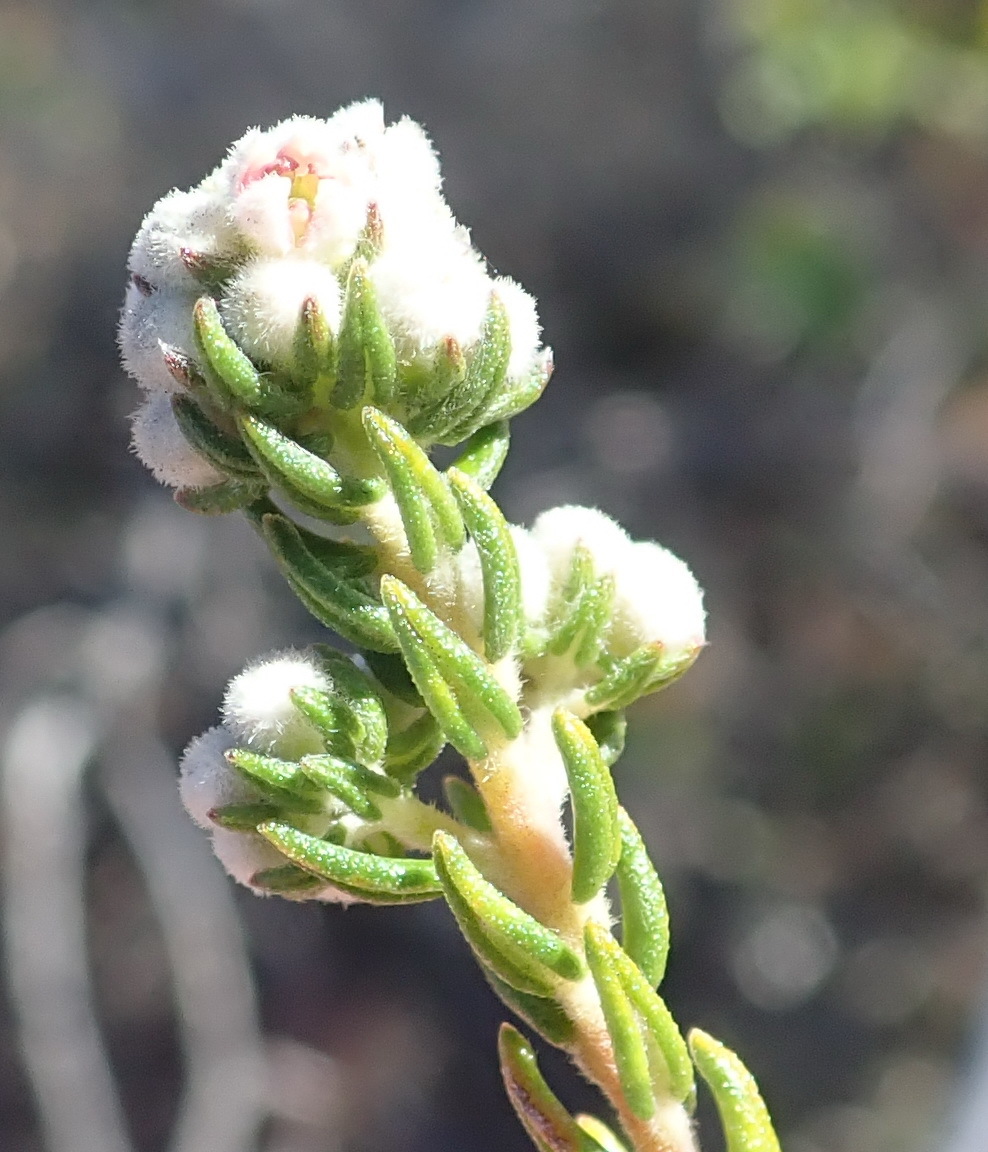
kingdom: Plantae
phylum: Tracheophyta
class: Magnoliopsida
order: Rosales
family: Rhamnaceae
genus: Phylica
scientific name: Phylica purpurea
